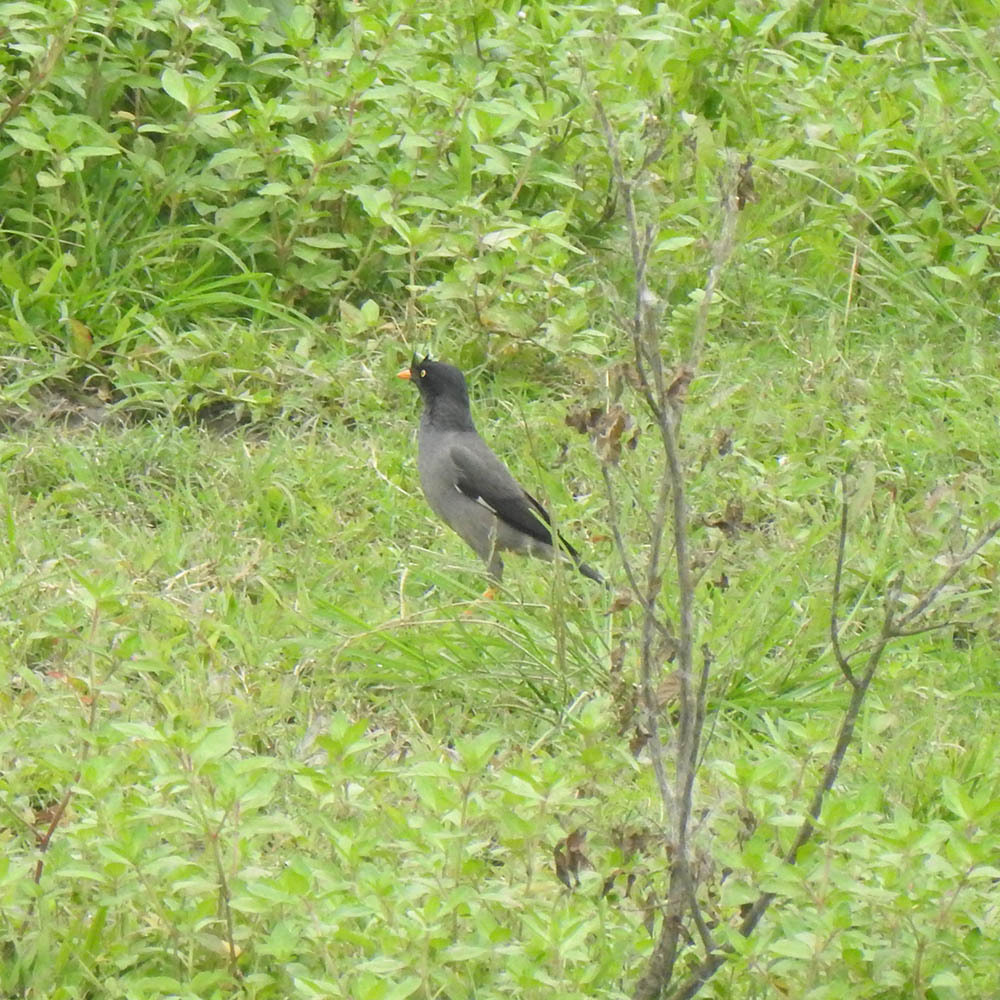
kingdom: Animalia
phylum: Chordata
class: Aves
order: Passeriformes
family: Sturnidae
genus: Acridotheres
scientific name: Acridotheres fuscus
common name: Jungle myna
